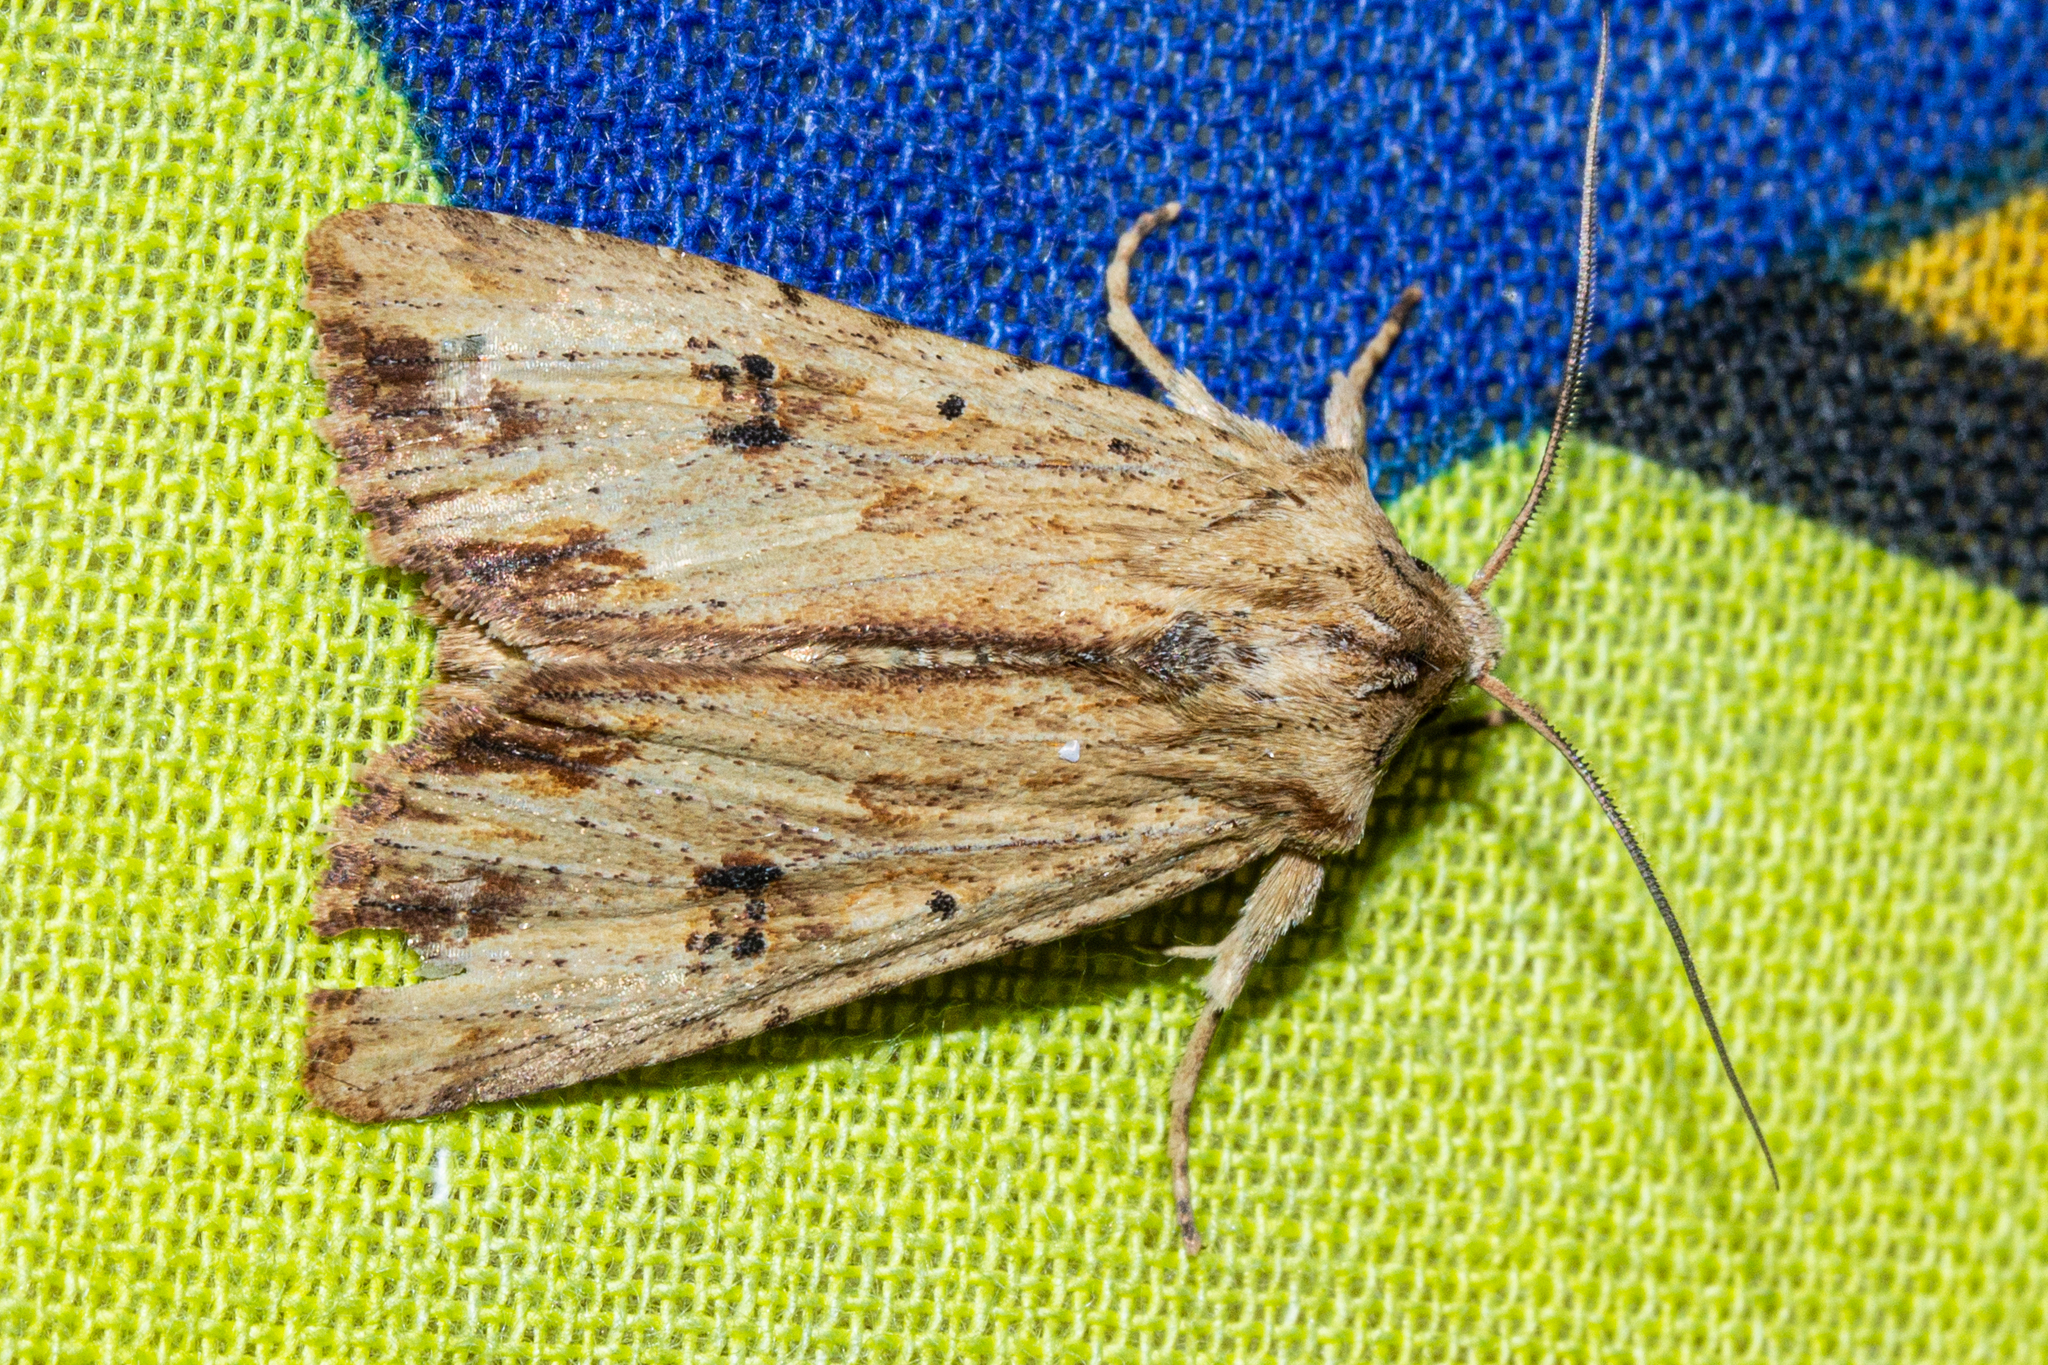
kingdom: Animalia
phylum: Arthropoda
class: Insecta
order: Lepidoptera
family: Noctuidae
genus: Ichneutica
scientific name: Ichneutica
